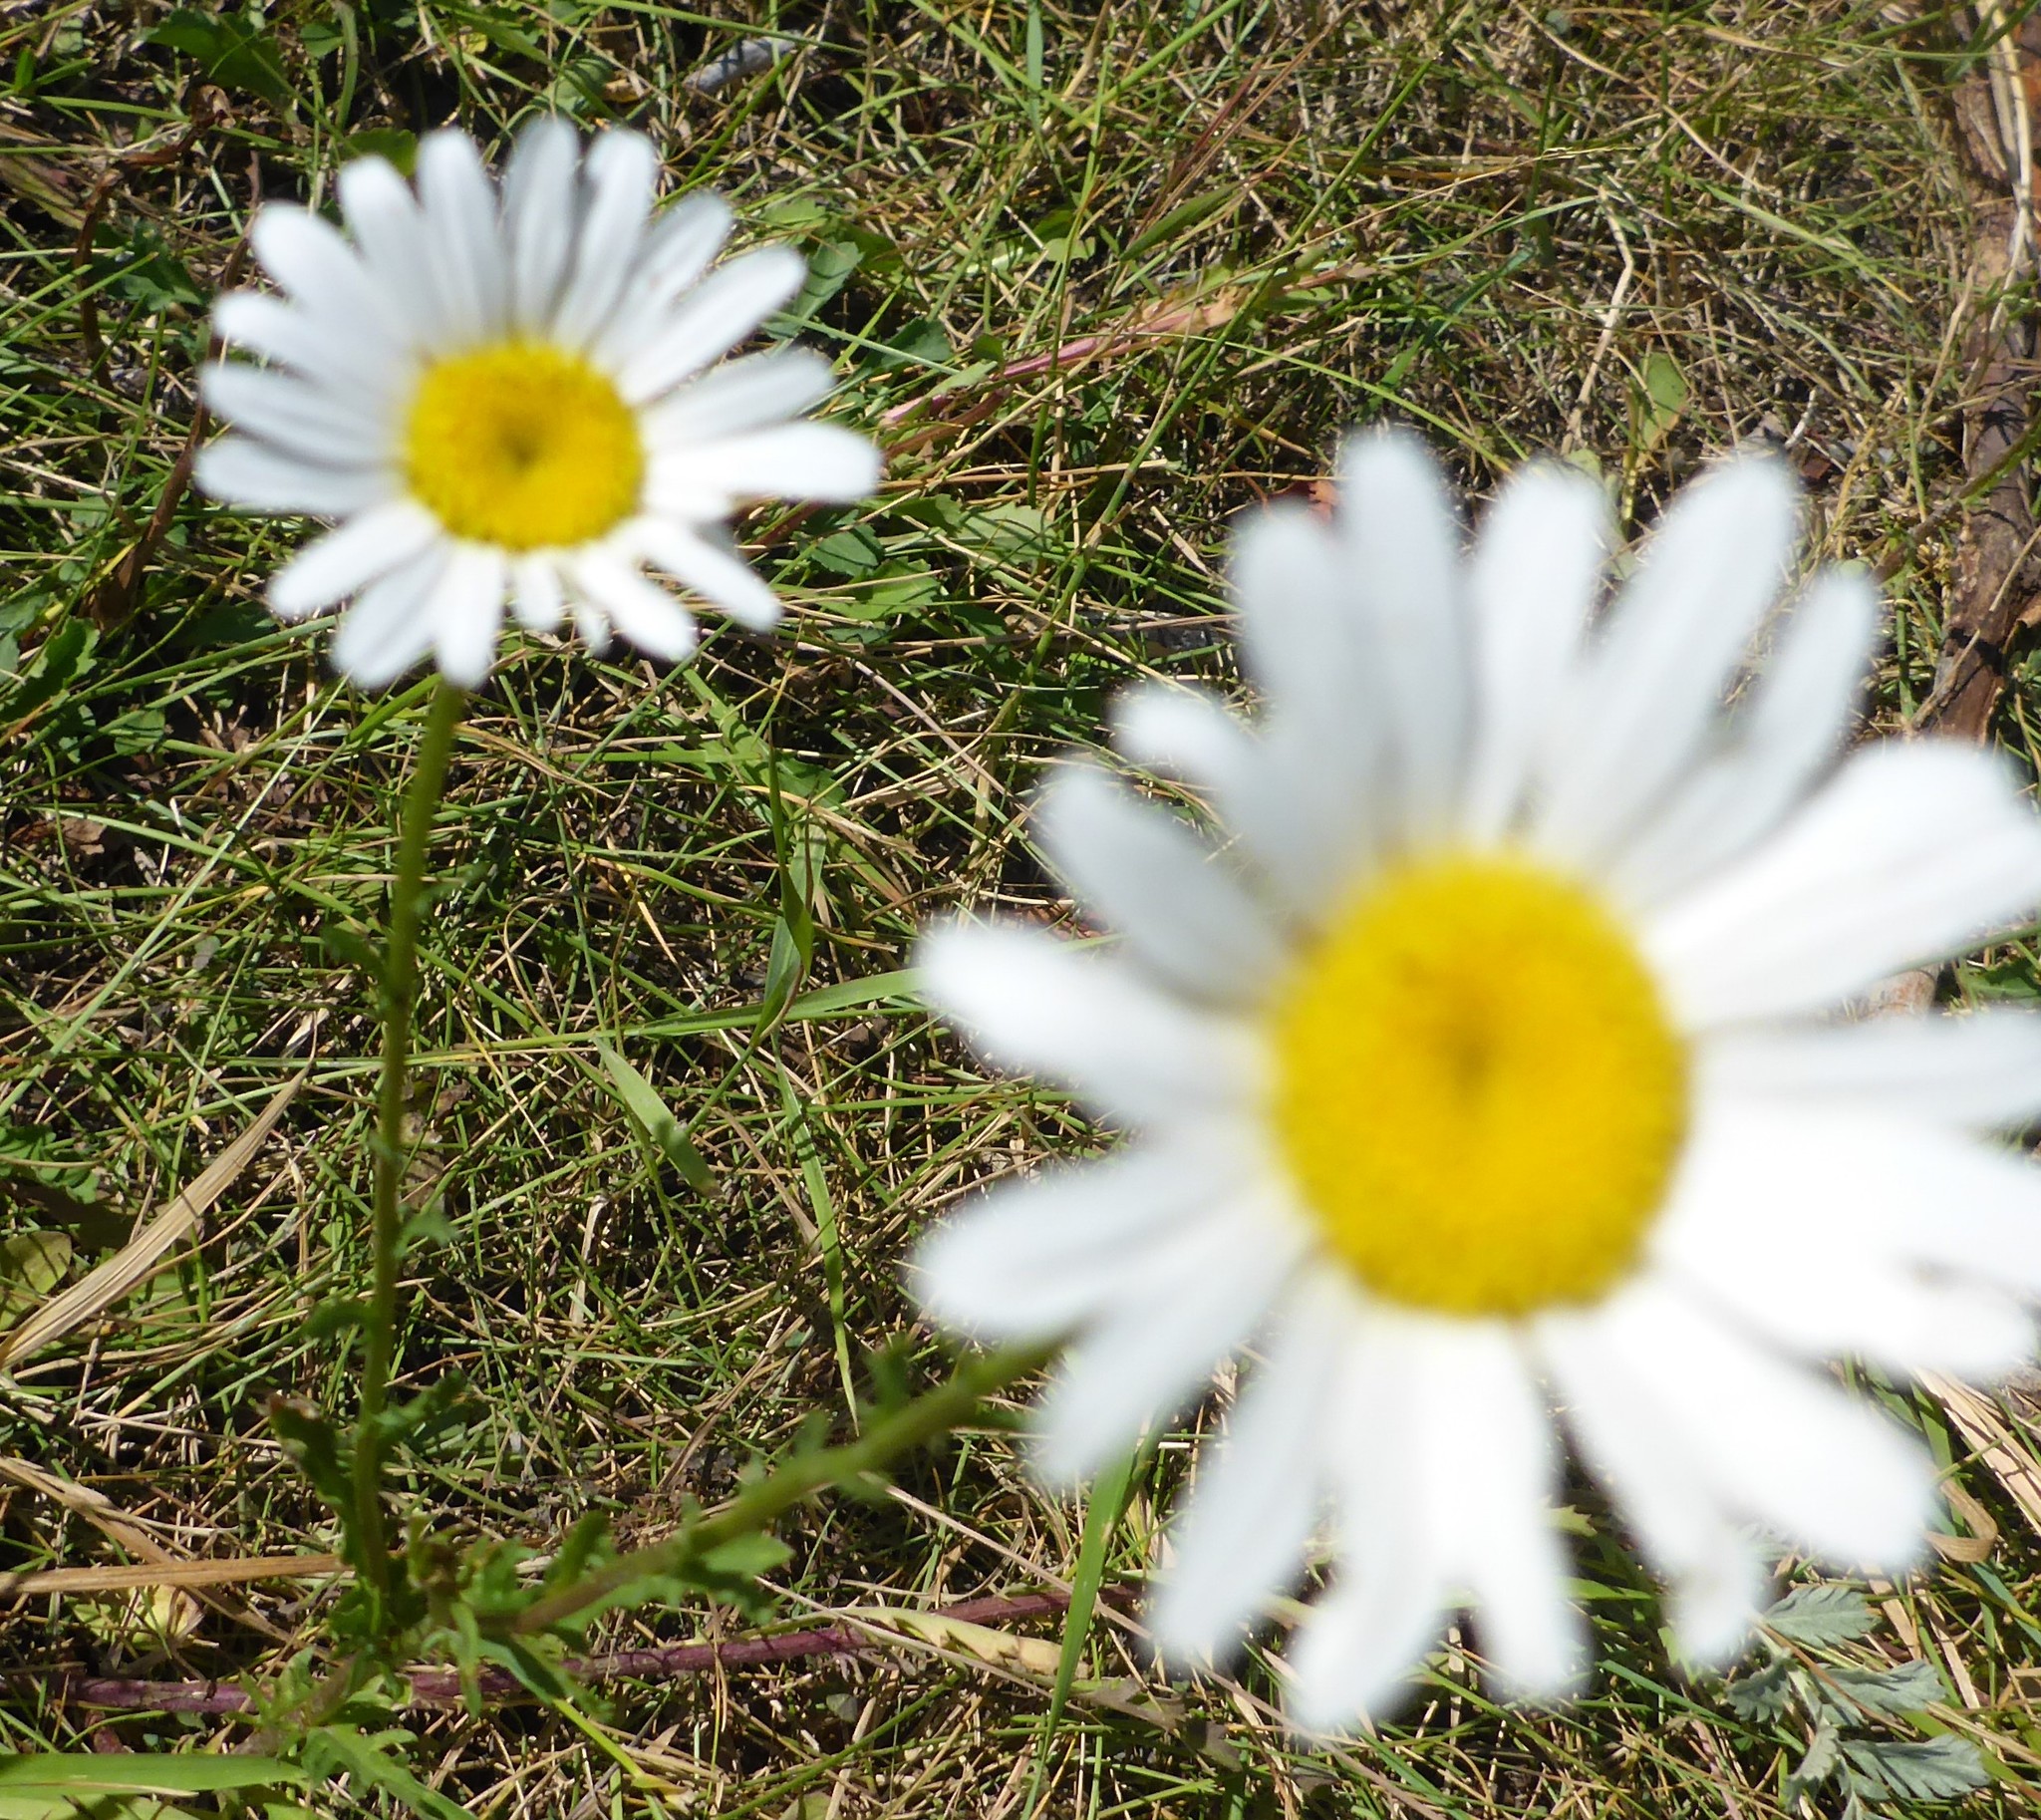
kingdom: Plantae
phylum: Tracheophyta
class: Magnoliopsida
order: Asterales
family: Asteraceae
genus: Leucanthemum
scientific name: Leucanthemum vulgare
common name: Oxeye daisy
